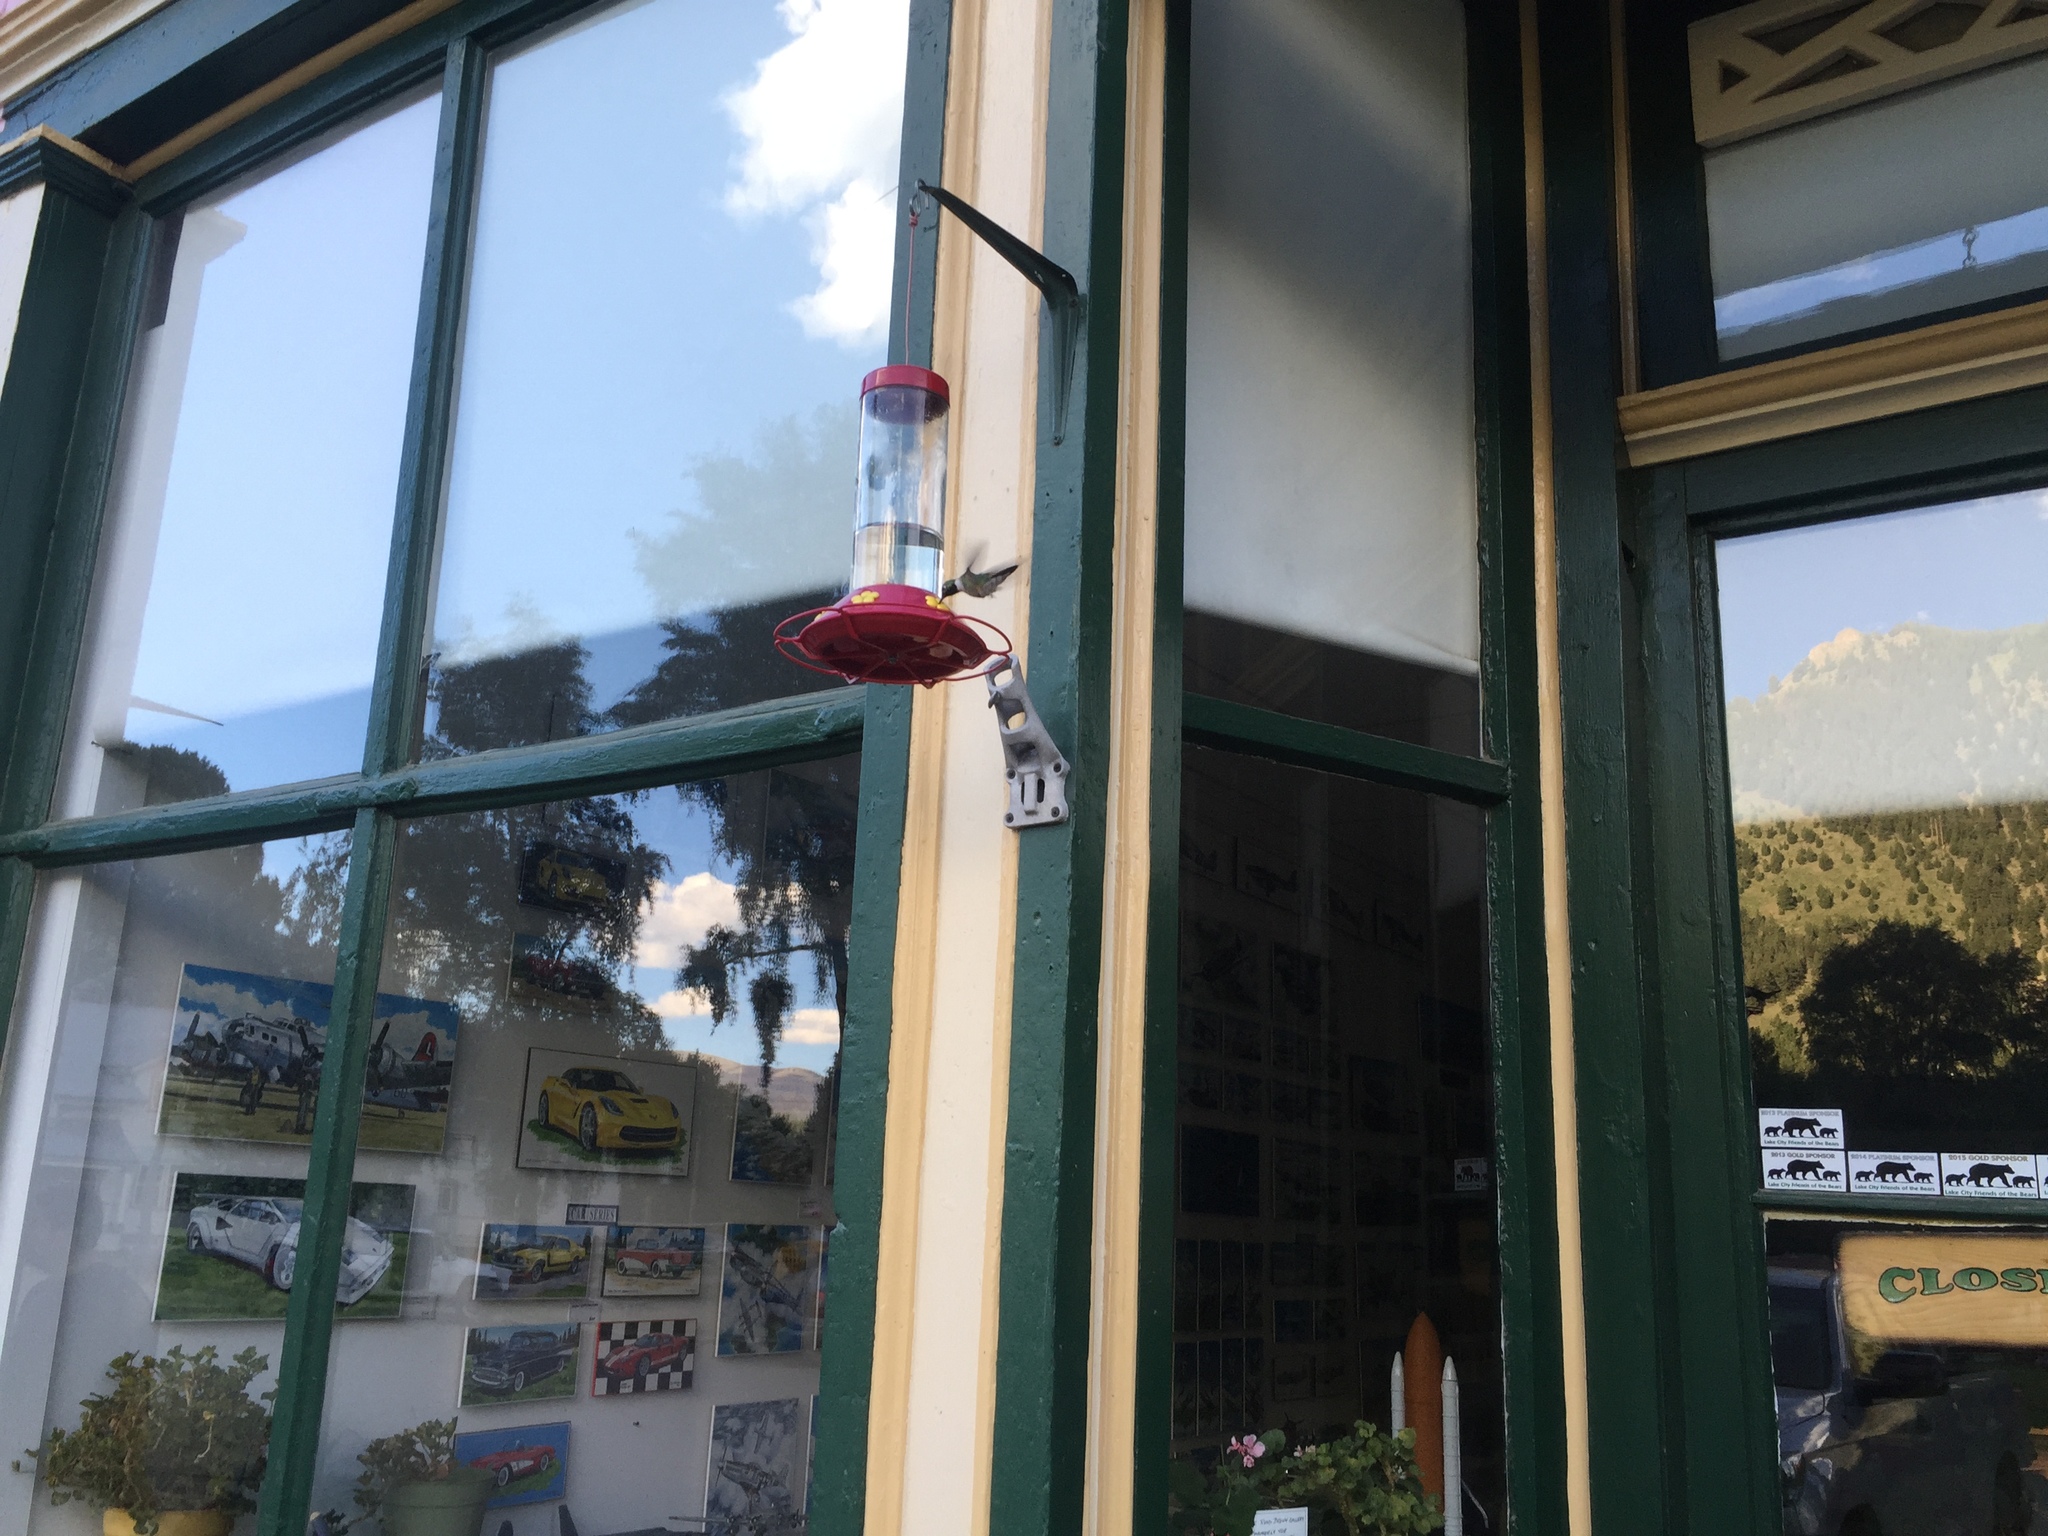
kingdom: Animalia
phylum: Chordata
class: Aves
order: Apodiformes
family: Trochilidae
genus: Selasphorus
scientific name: Selasphorus platycercus
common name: Broad-tailed hummingbird
